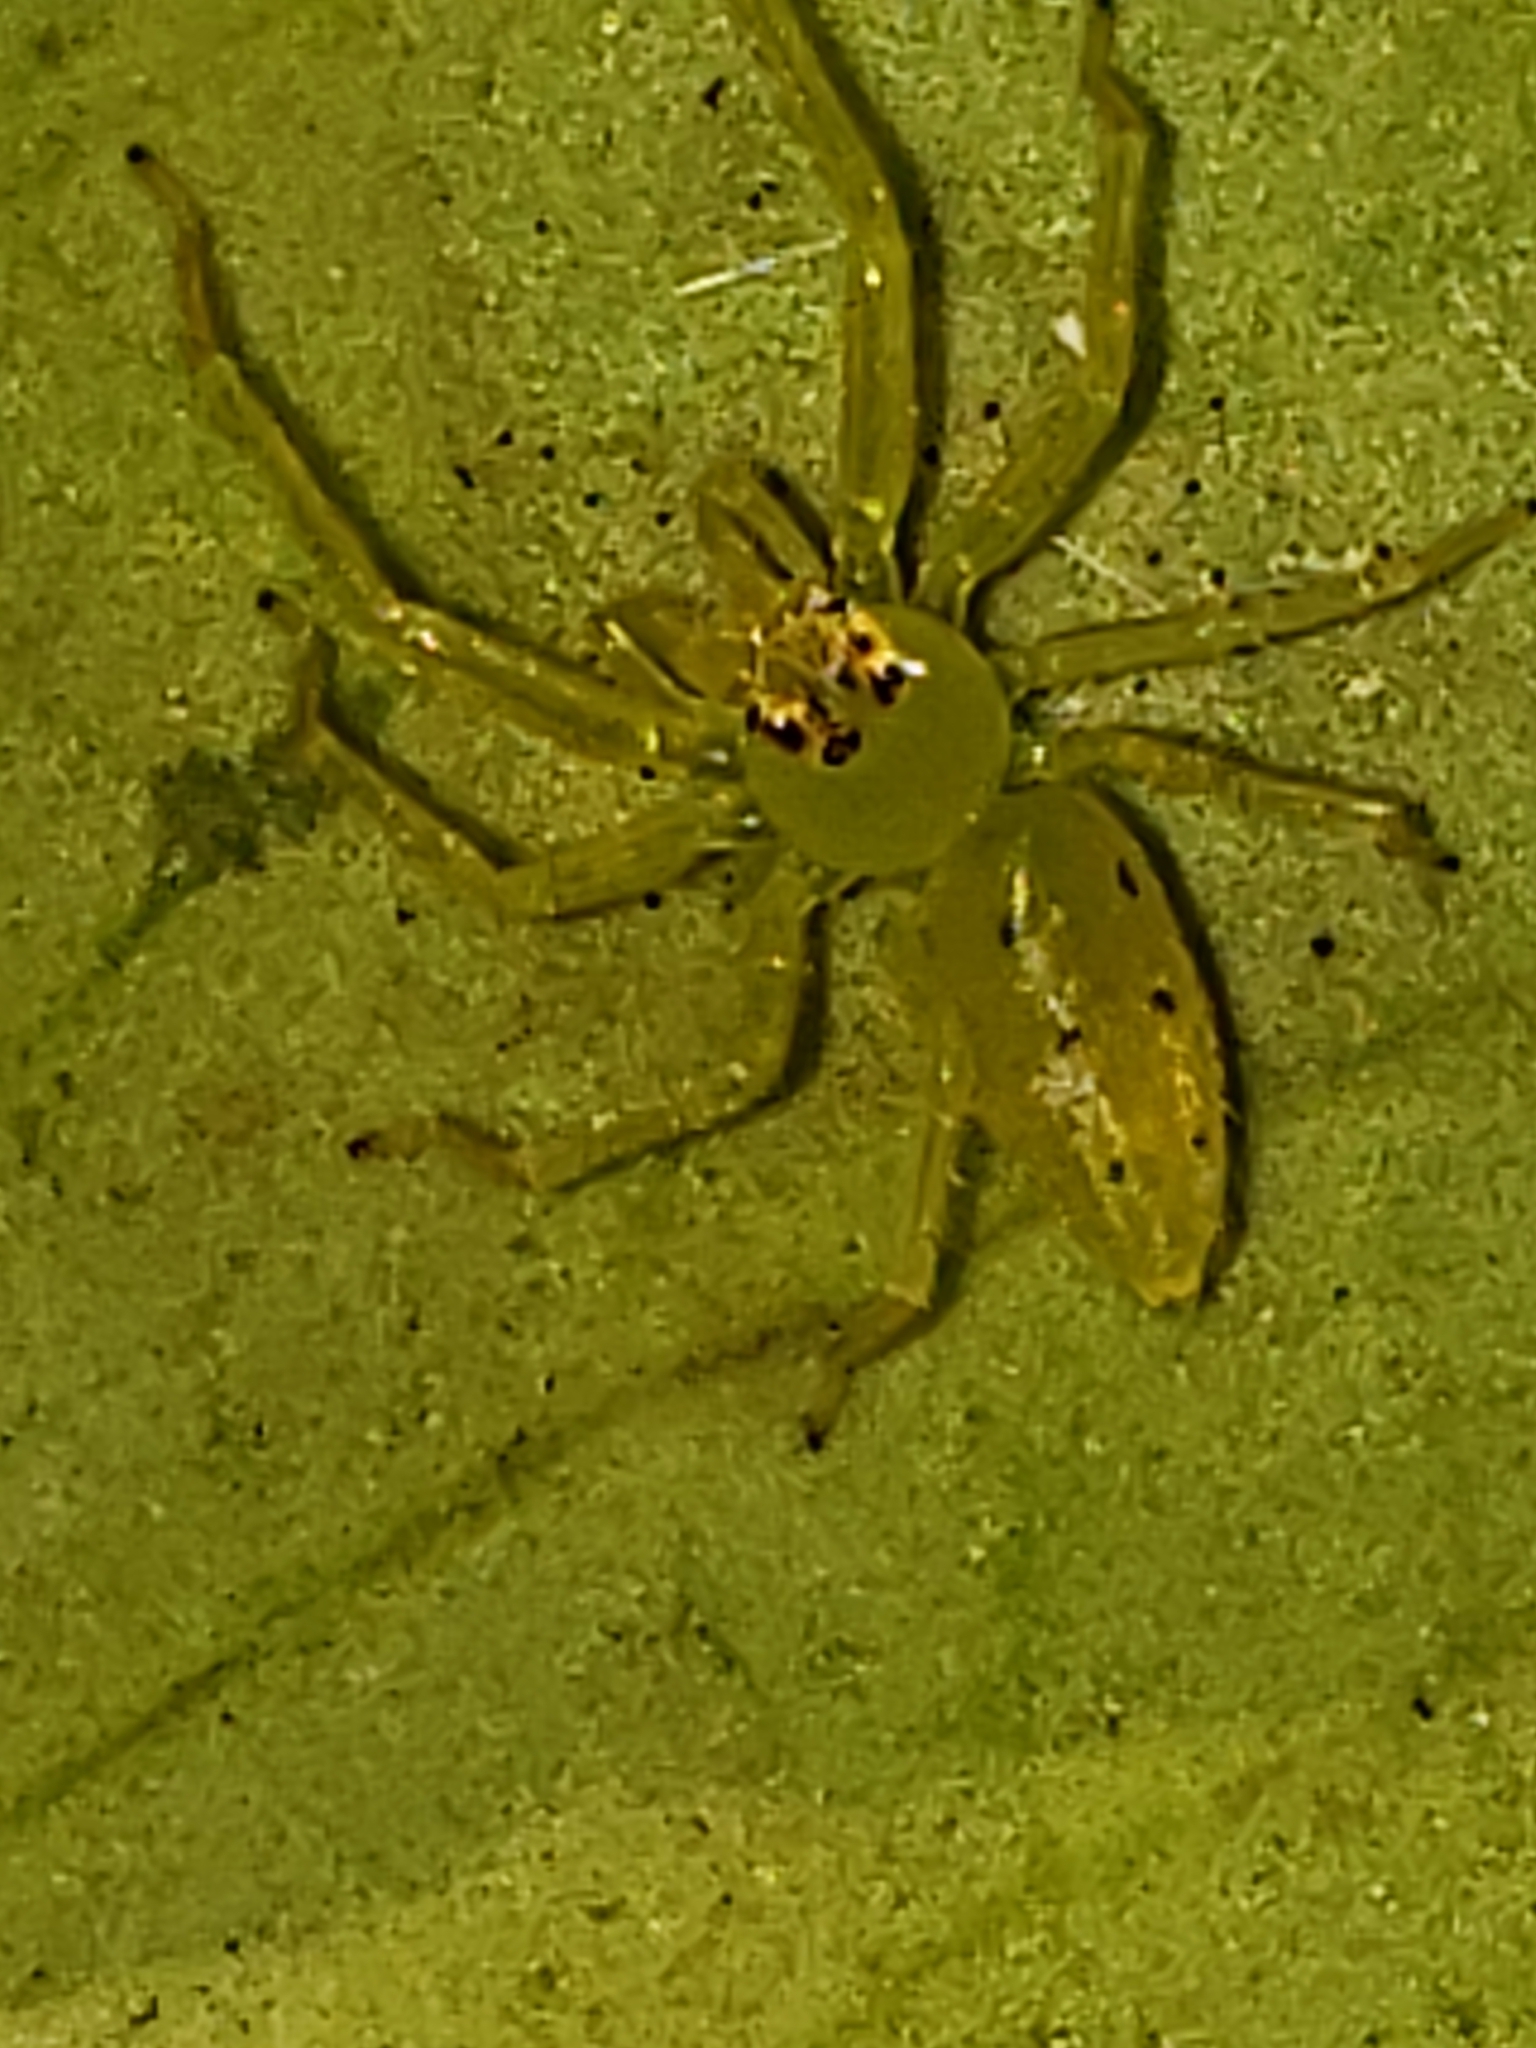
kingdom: Animalia
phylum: Arthropoda
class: Arachnida
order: Araneae
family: Salticidae
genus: Lyssomanes
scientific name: Lyssomanes viridis
